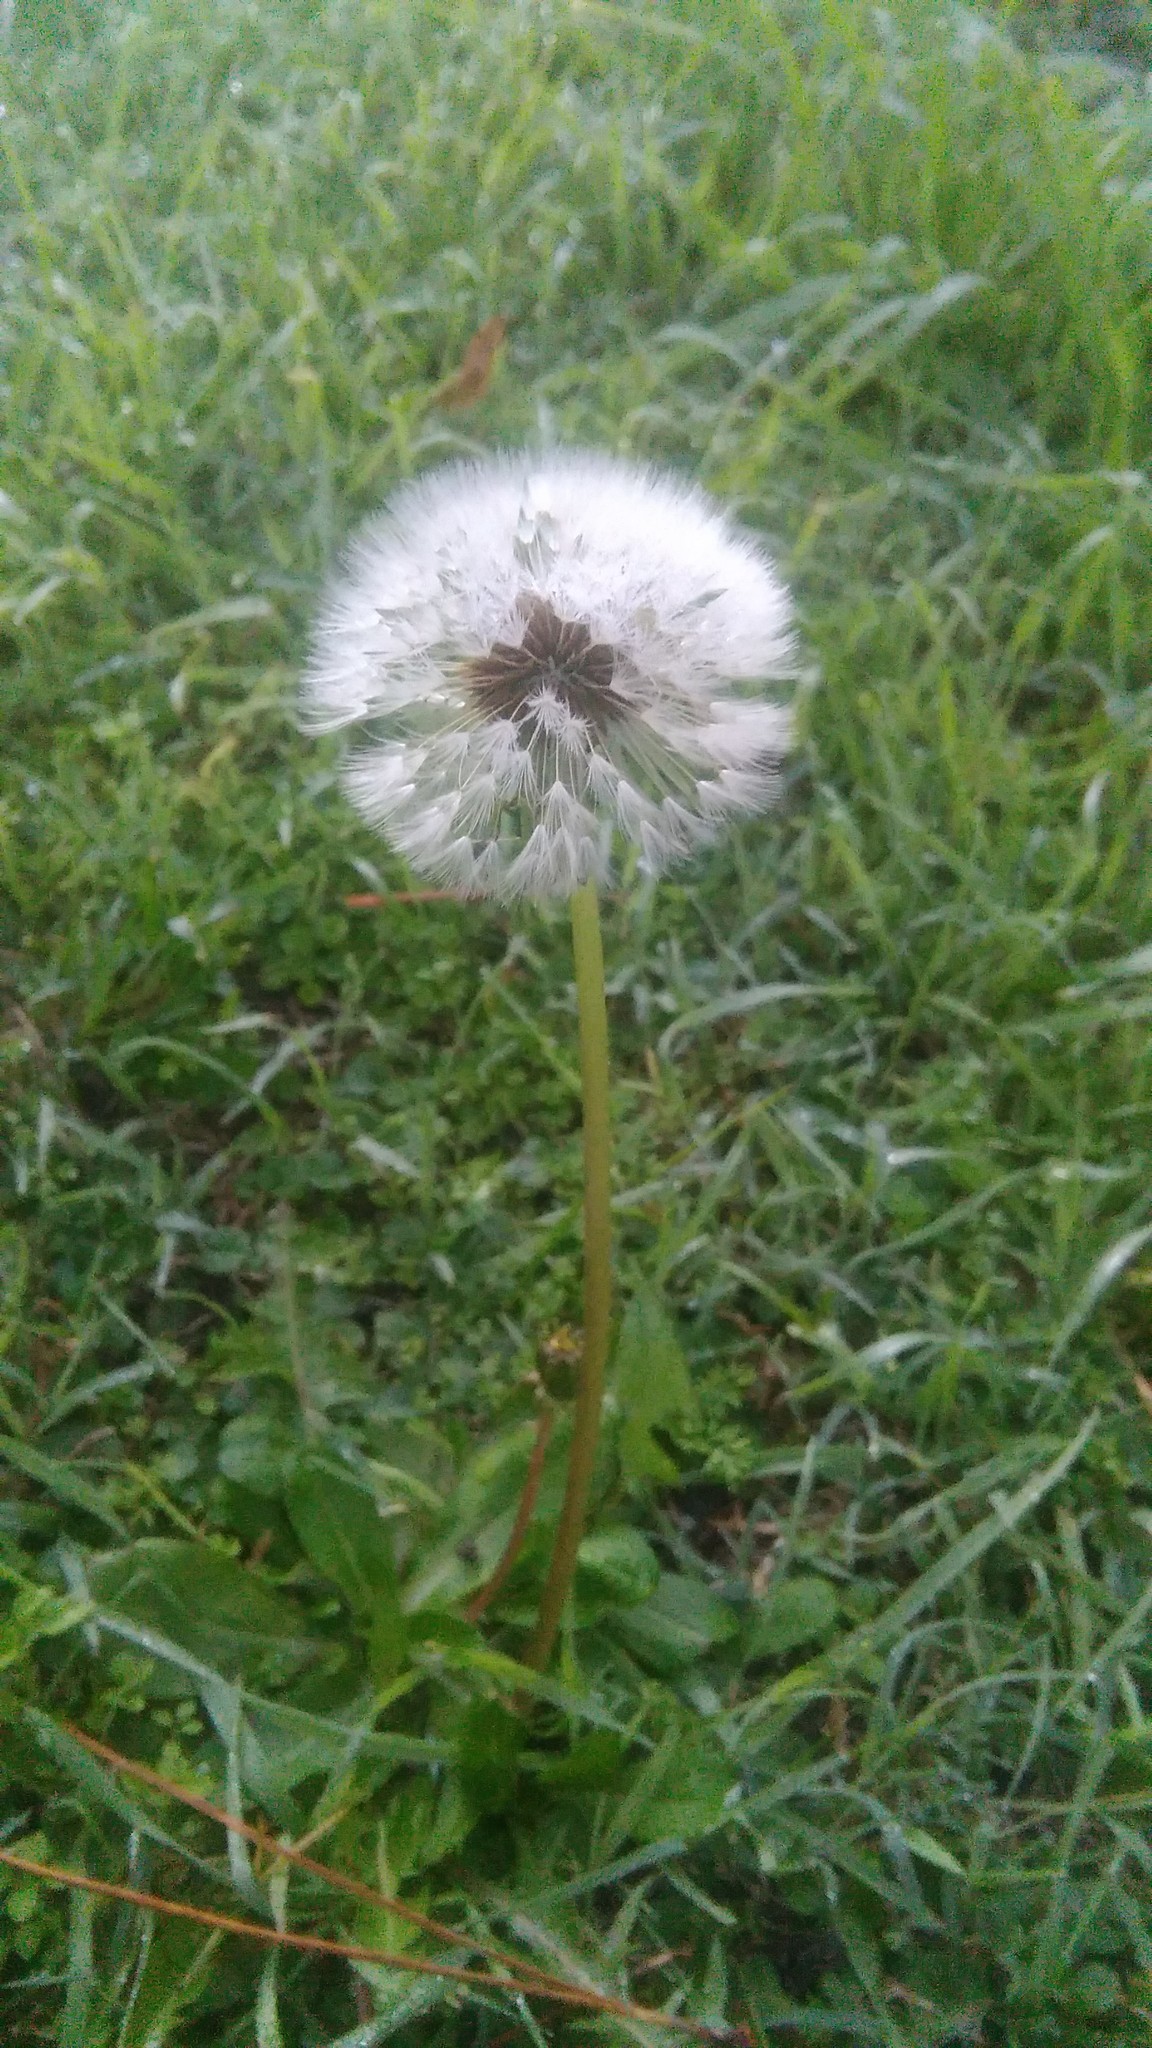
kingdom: Plantae
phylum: Tracheophyta
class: Magnoliopsida
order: Asterales
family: Asteraceae
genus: Taraxacum
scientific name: Taraxacum officinale
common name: Common dandelion
